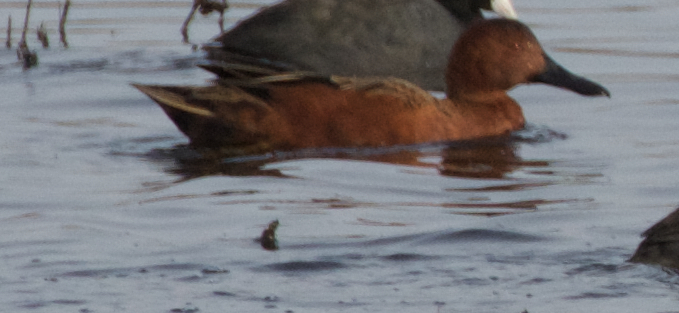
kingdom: Animalia
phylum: Chordata
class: Aves
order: Anseriformes
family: Anatidae
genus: Spatula
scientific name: Spatula cyanoptera
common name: Cinnamon teal
